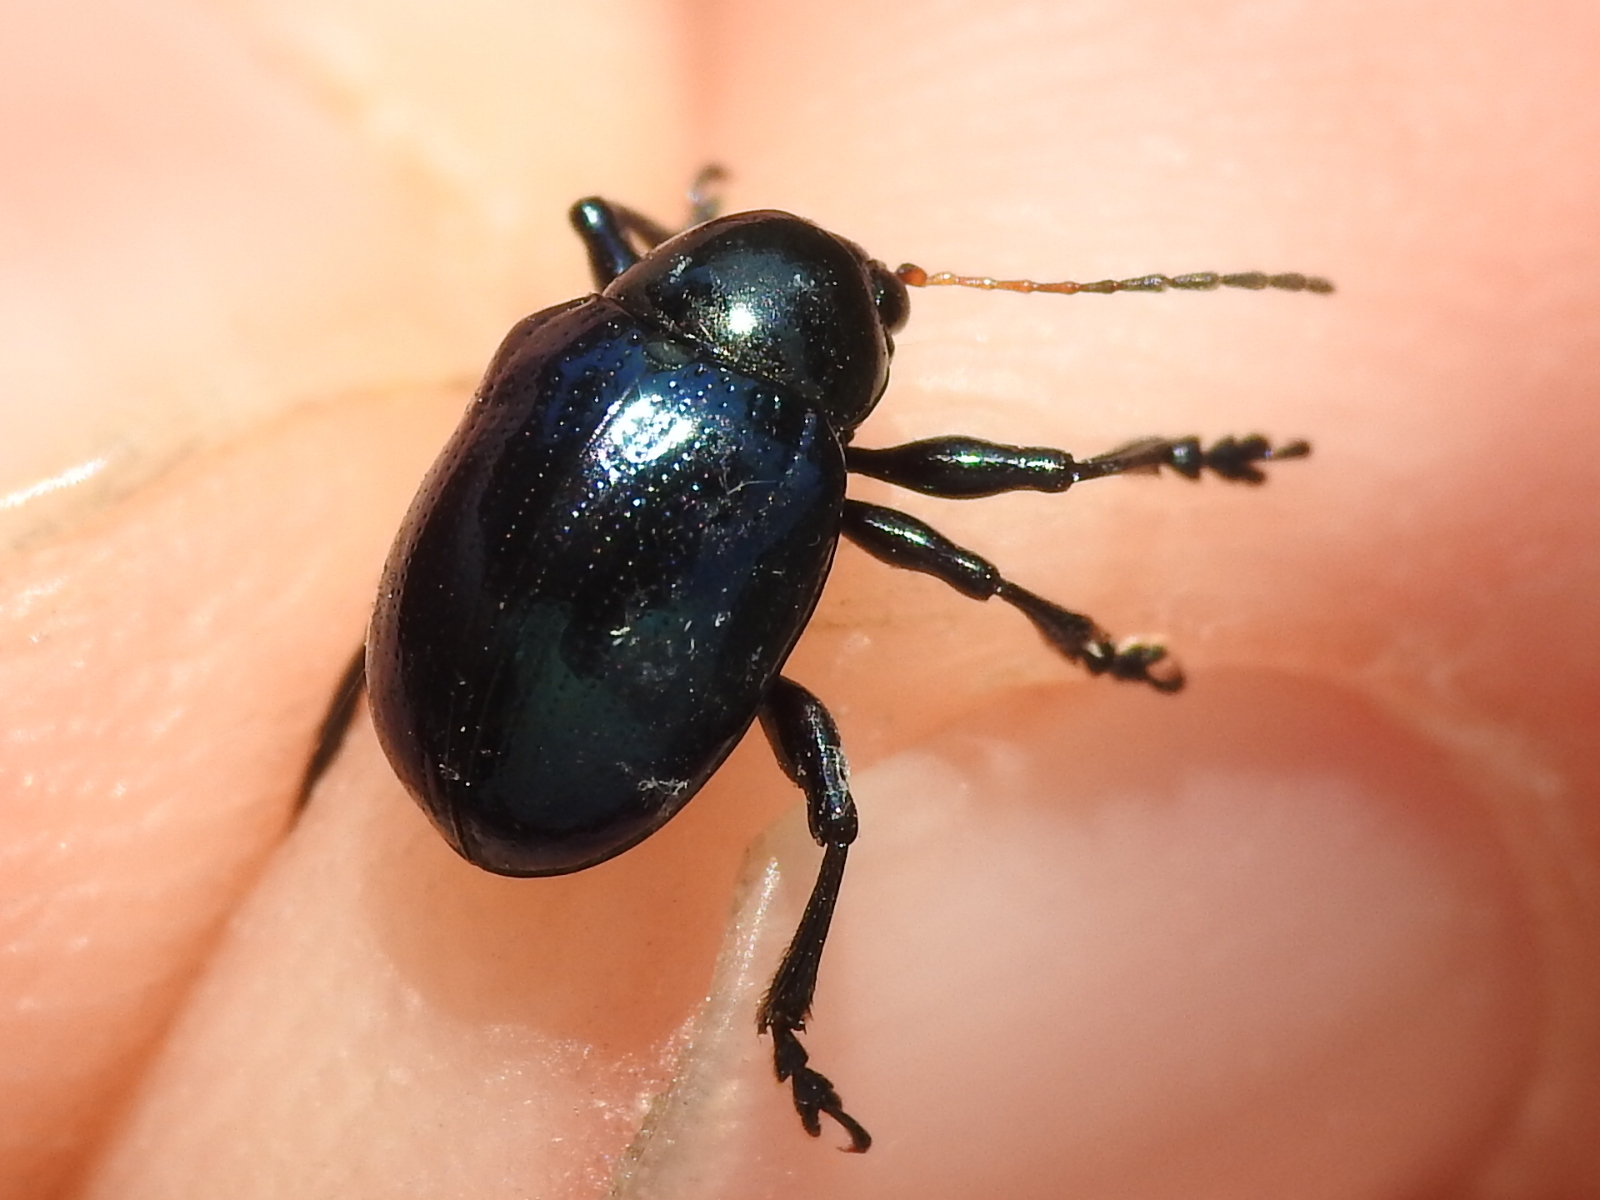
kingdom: Animalia
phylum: Arthropoda
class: Insecta
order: Coleoptera
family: Chrysomelidae
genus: Typophorus
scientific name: Typophorus nigritus
